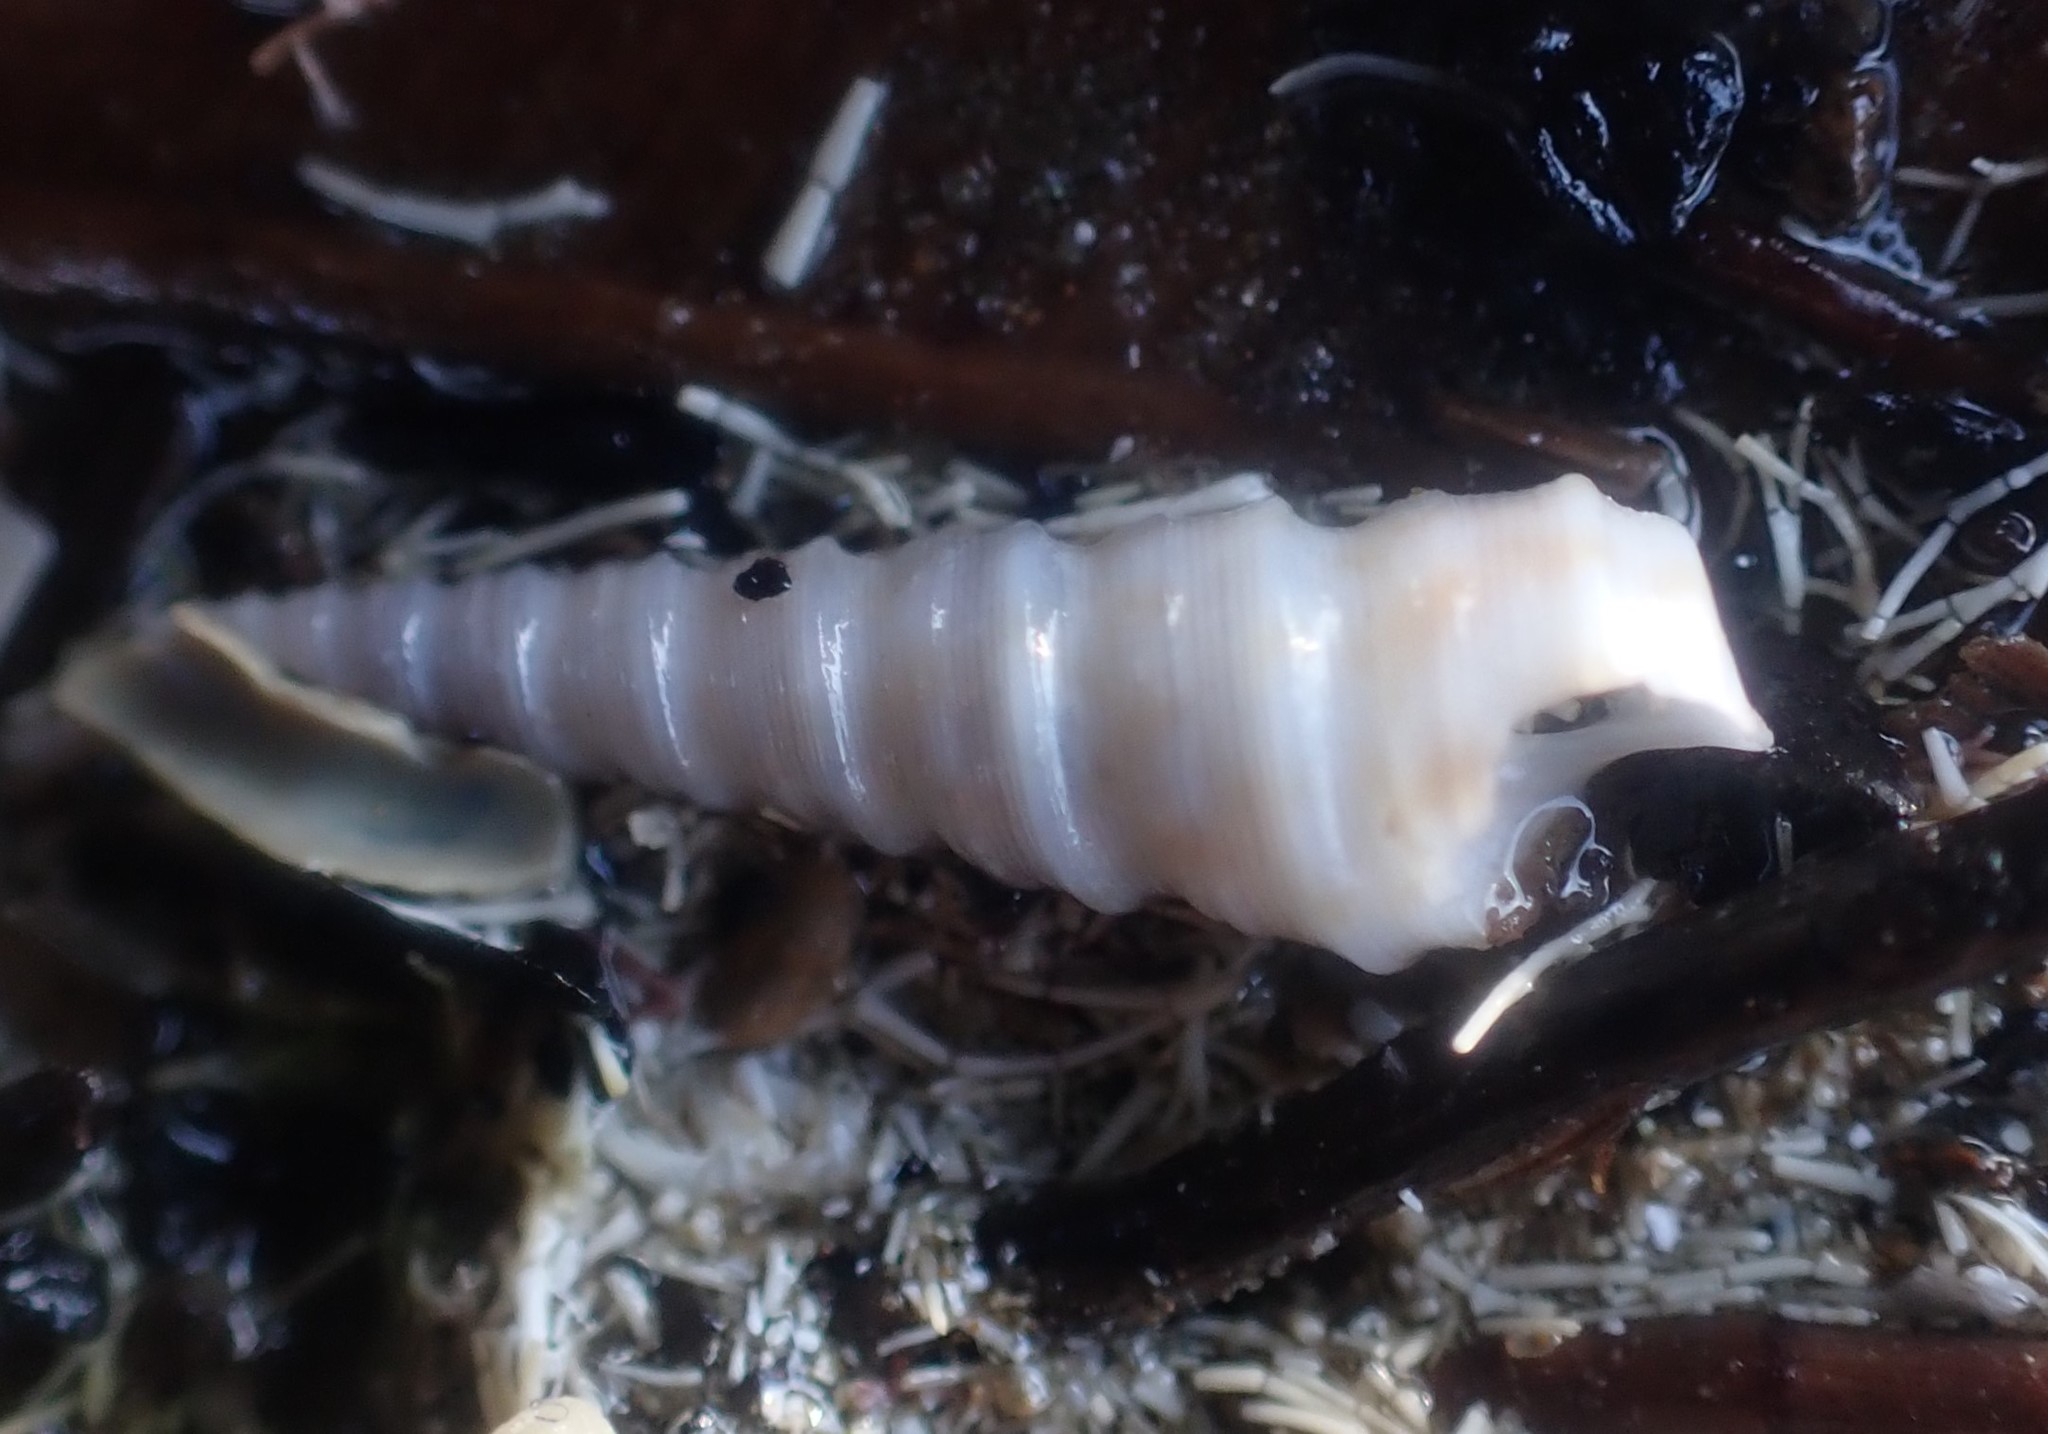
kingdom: Animalia
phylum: Mollusca
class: Gastropoda
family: Turritellidae
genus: Stiracolpus
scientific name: Stiracolpus pagoda
